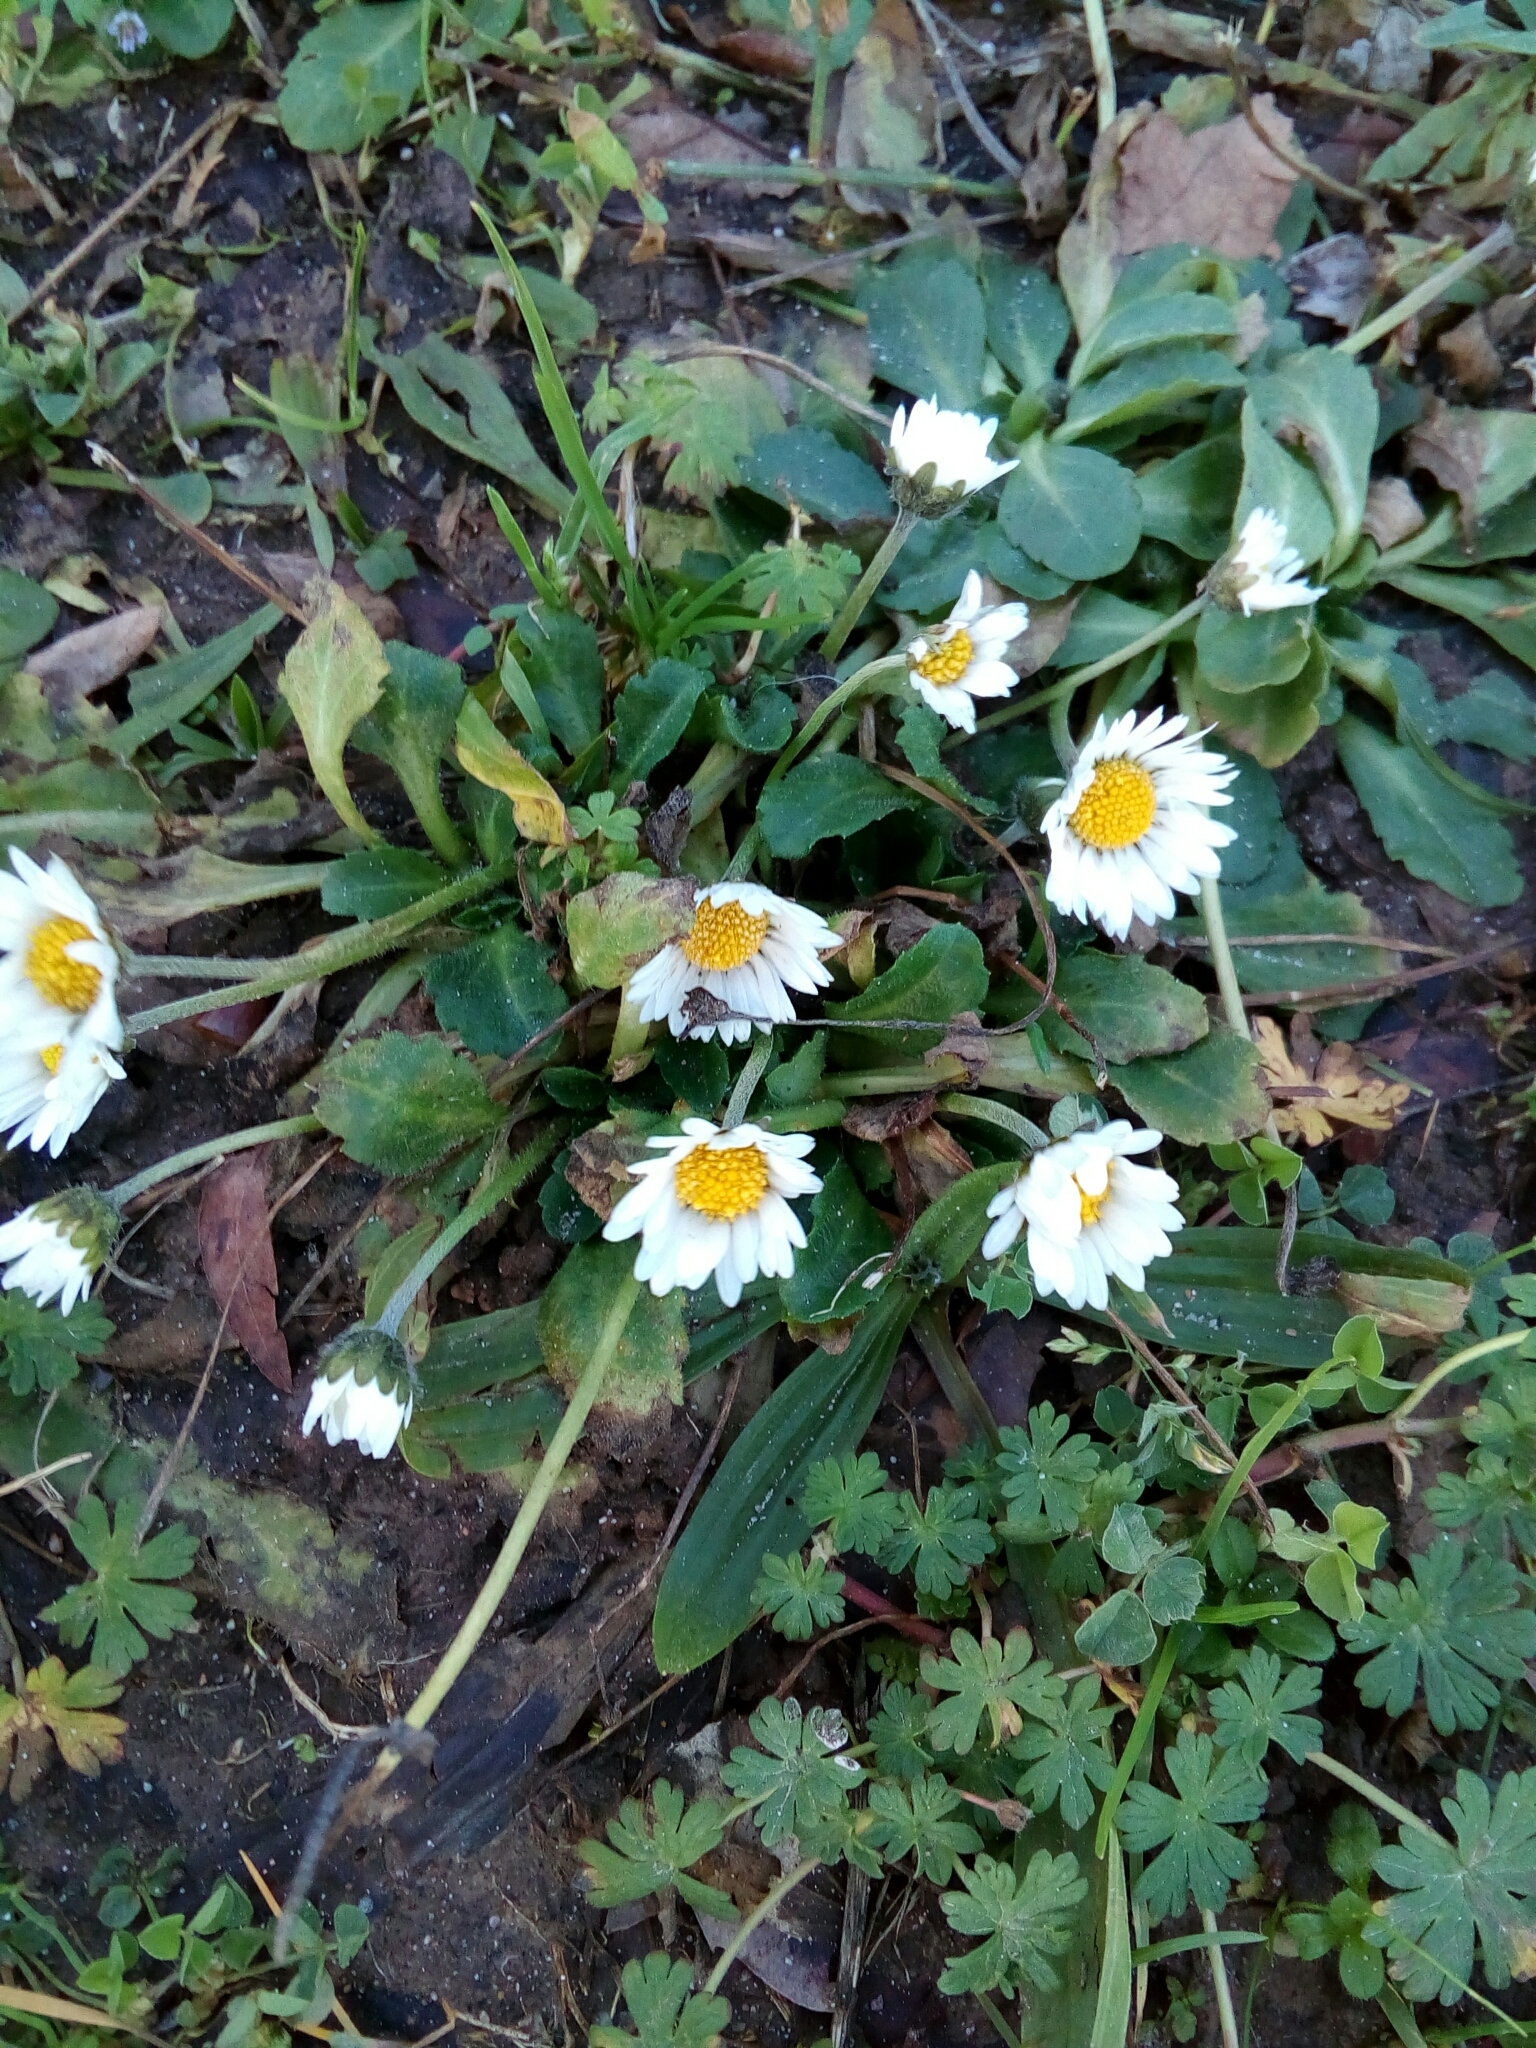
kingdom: Plantae
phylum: Tracheophyta
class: Magnoliopsida
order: Asterales
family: Asteraceae
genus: Bellis
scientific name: Bellis perennis
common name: Lawndaisy
